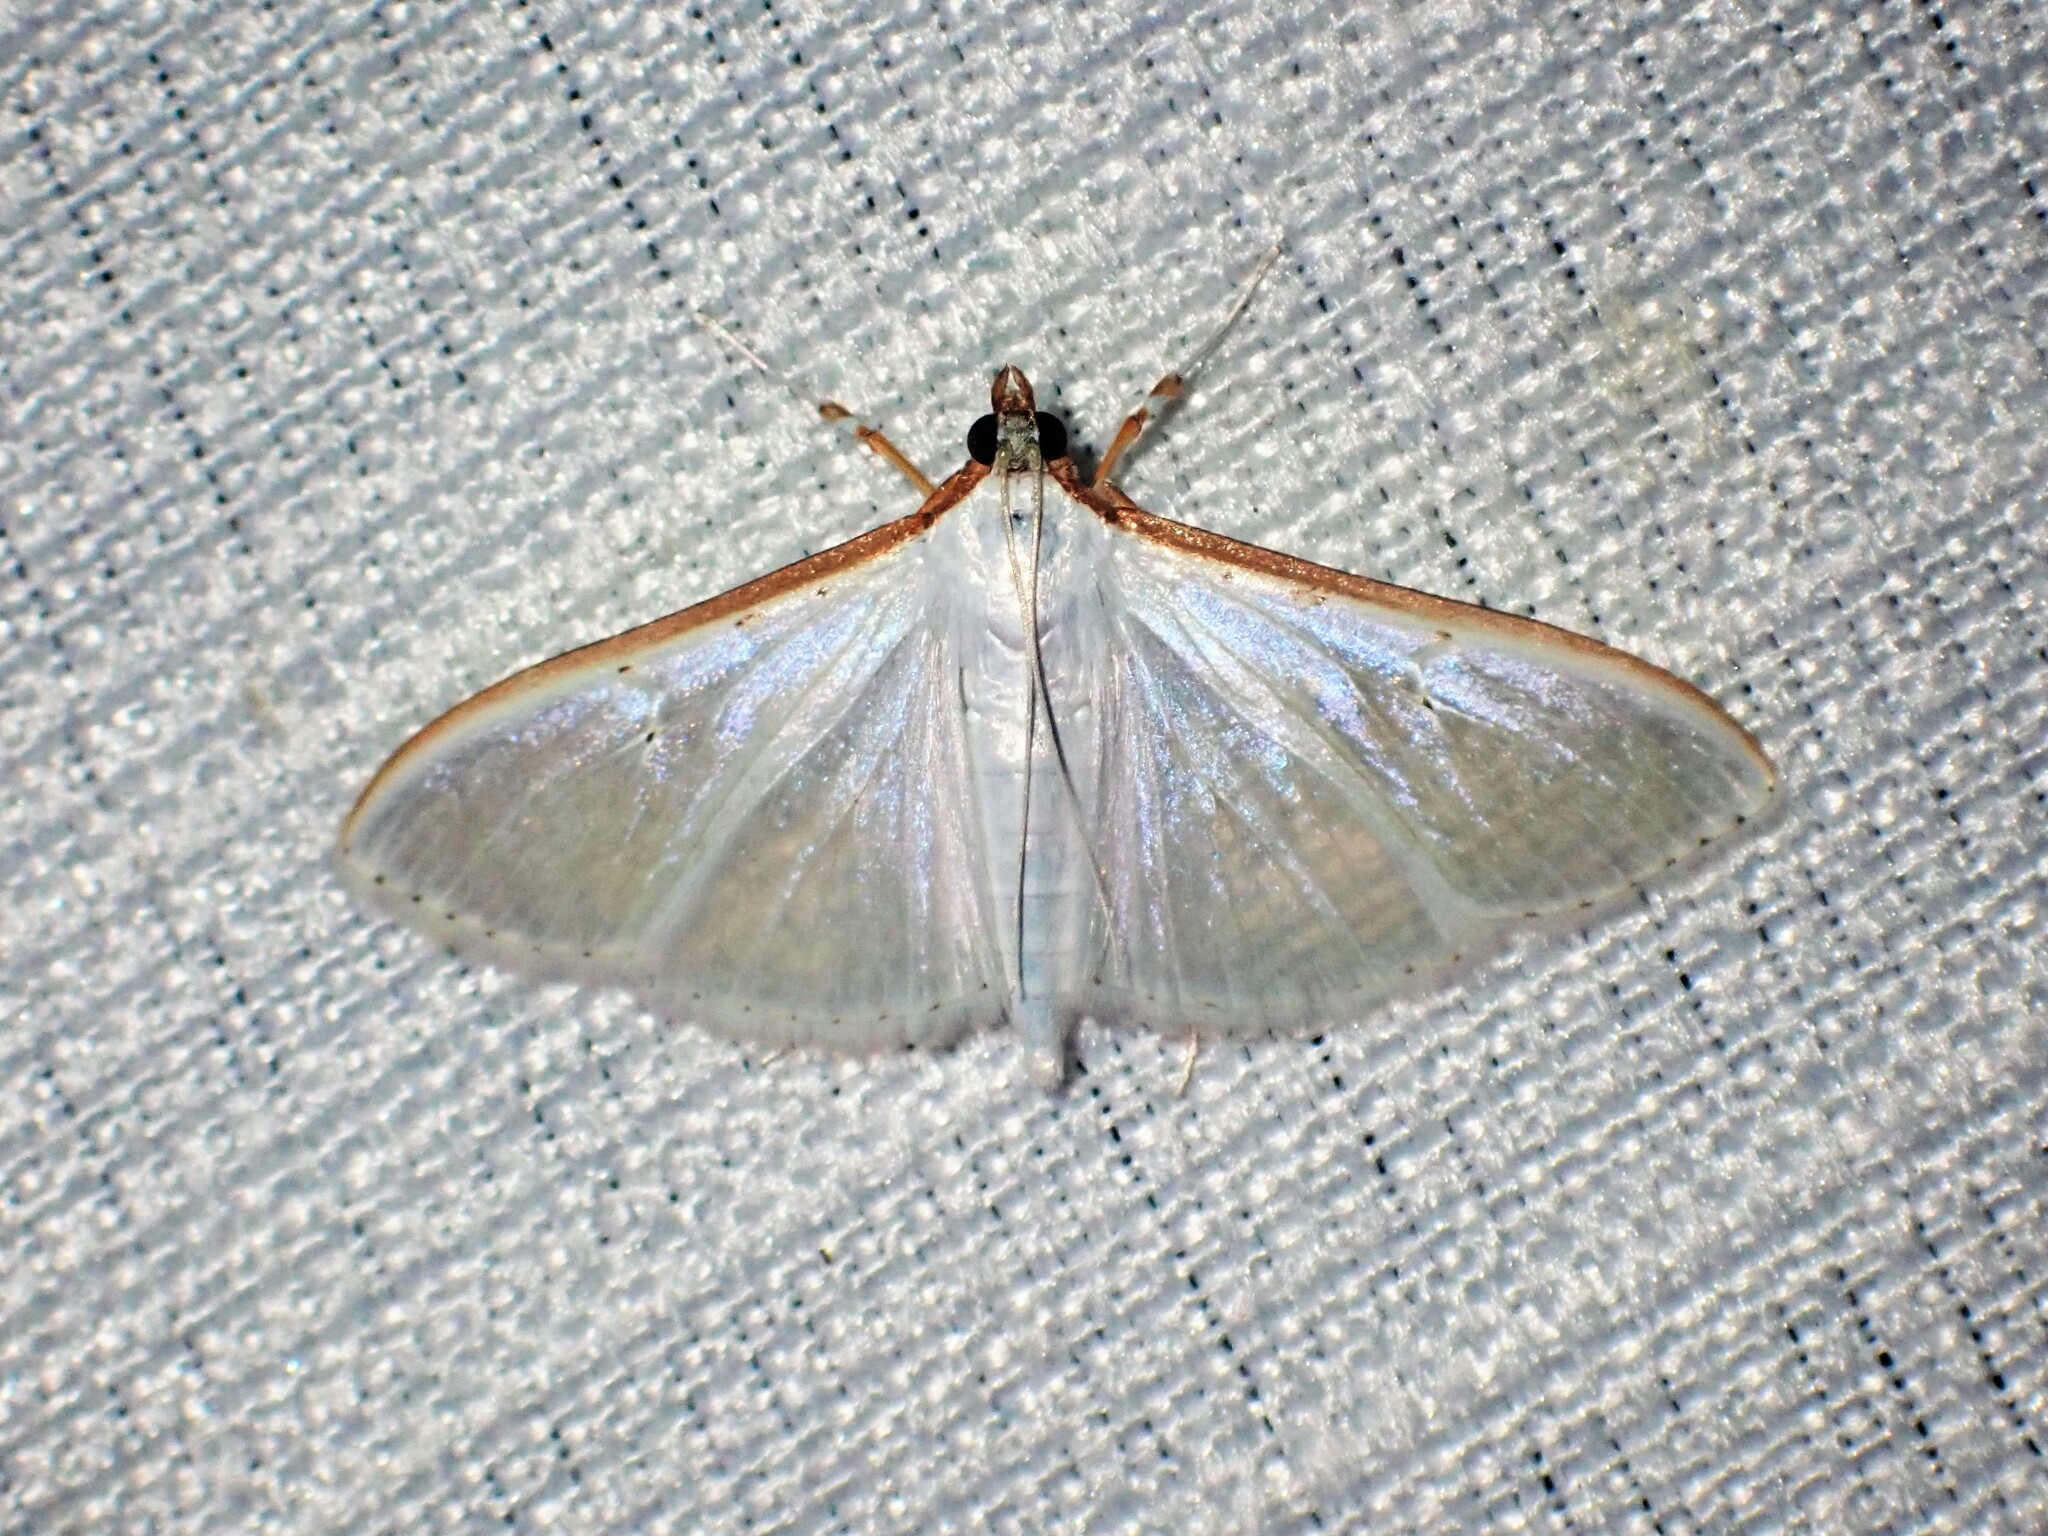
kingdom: Animalia
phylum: Arthropoda
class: Insecta
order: Lepidoptera
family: Crambidae
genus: Palpita
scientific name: Palpita vitrealis
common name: Olive-tree pearl
